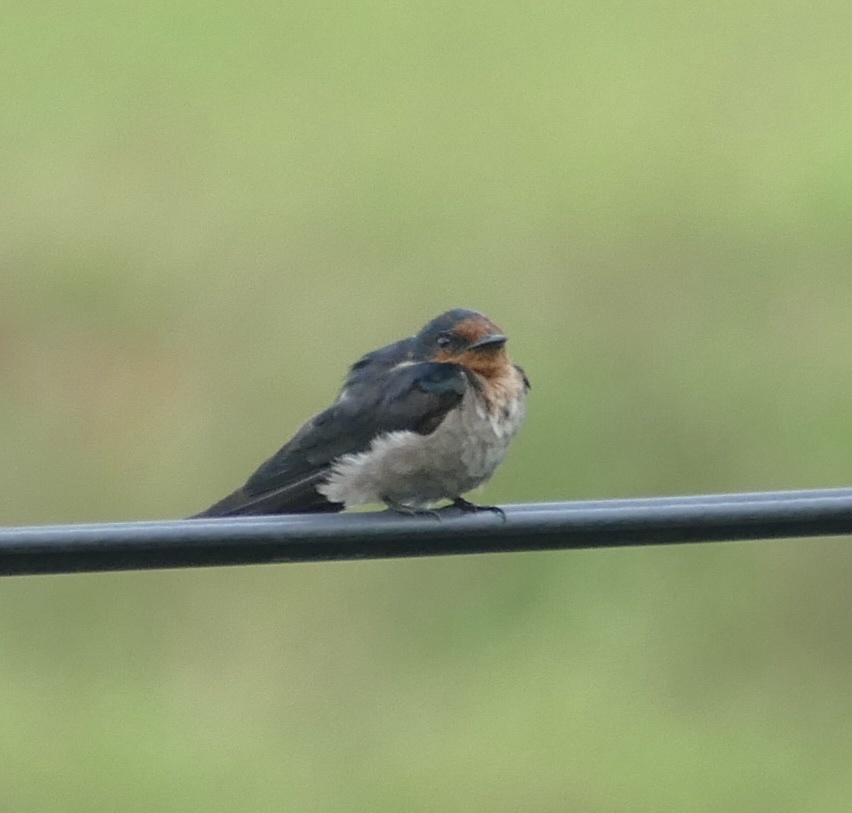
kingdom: Animalia
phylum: Chordata
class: Aves
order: Passeriformes
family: Hirundinidae
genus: Hirundo
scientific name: Hirundo tahitica
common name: Pacific swallow
